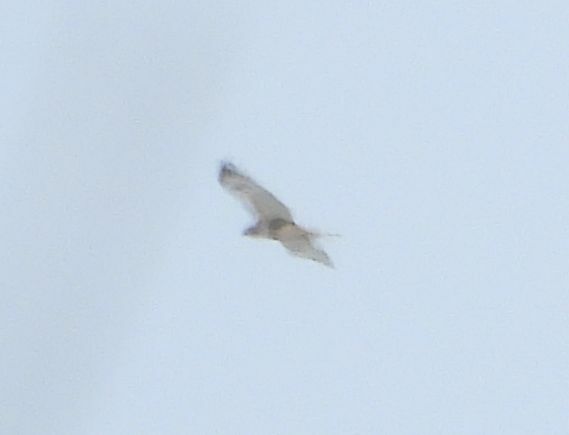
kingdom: Animalia
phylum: Chordata
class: Aves
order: Accipitriformes
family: Accipitridae
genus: Buteo
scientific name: Buteo jamaicensis
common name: Red-tailed hawk
